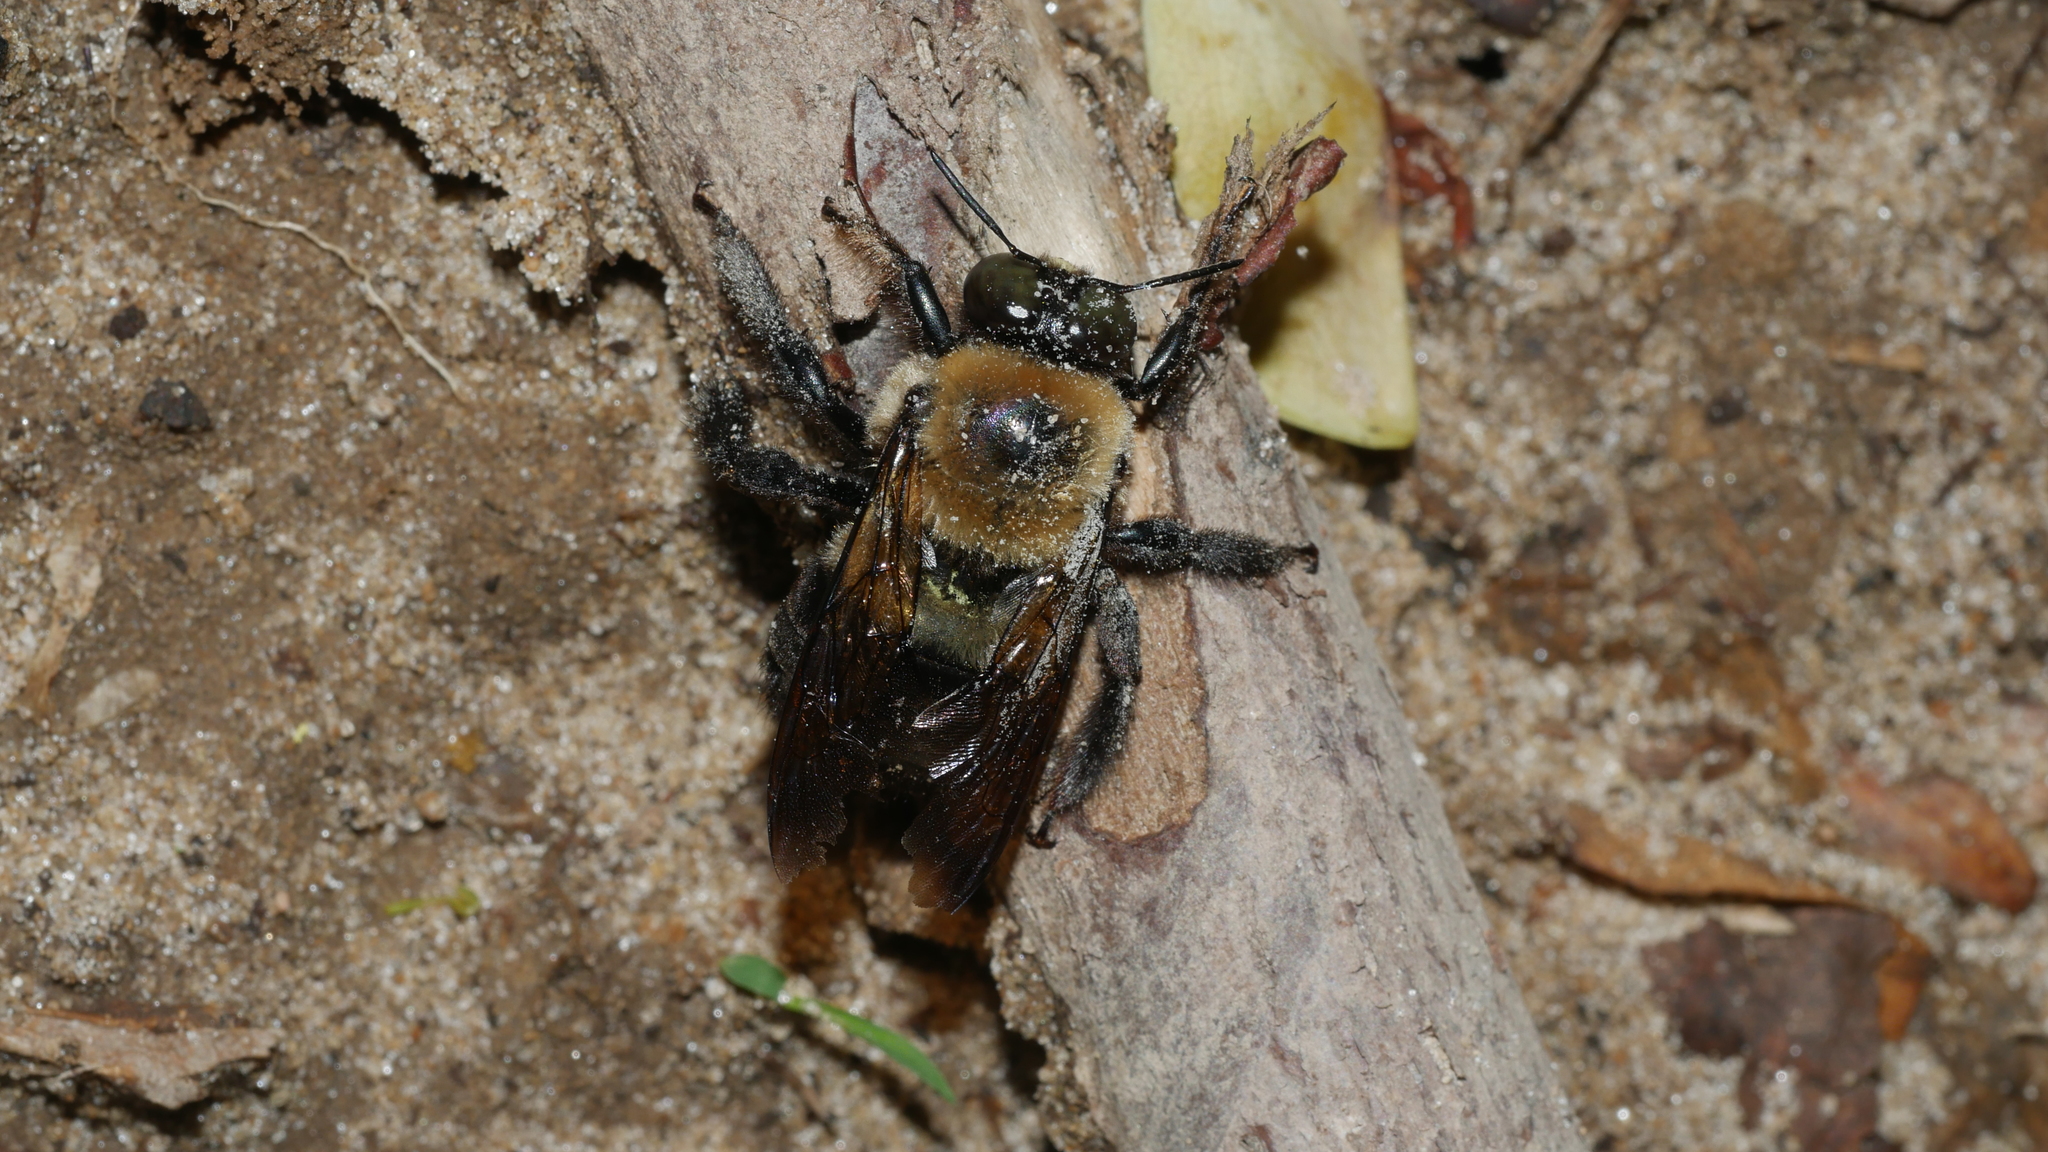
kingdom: Animalia
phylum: Arthropoda
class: Insecta
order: Hymenoptera
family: Apidae
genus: Xylocopa
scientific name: Xylocopa virginica
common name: Carpenter bee
